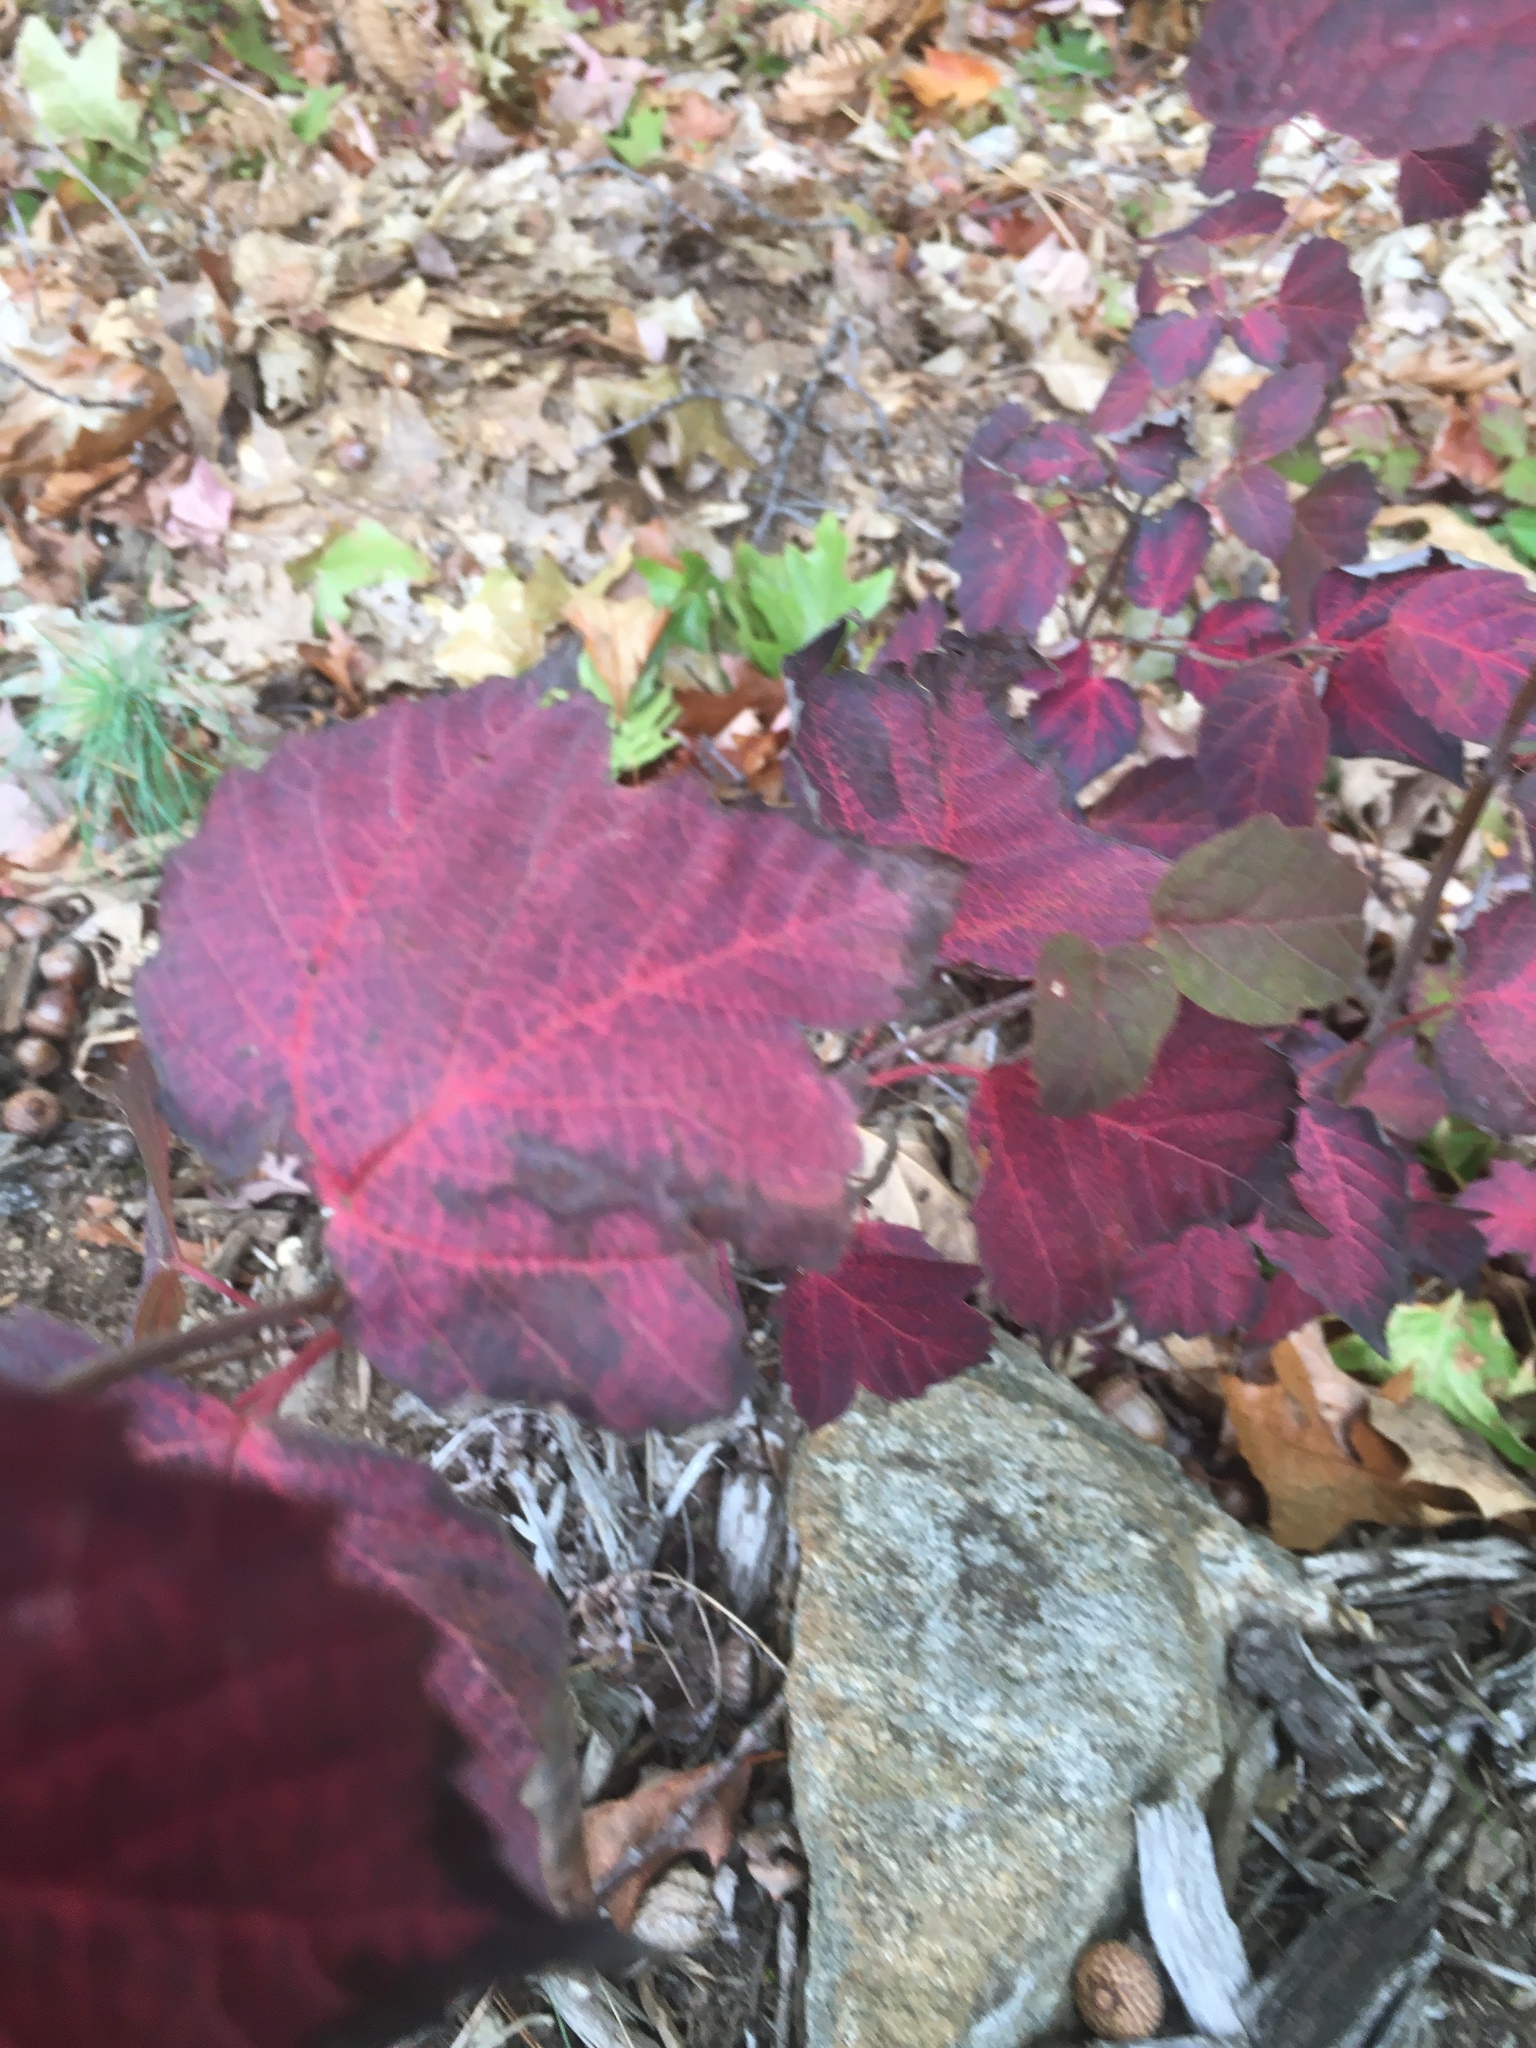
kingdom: Plantae
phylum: Tracheophyta
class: Magnoliopsida
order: Dipsacales
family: Viburnaceae
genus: Viburnum
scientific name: Viburnum acerifolium
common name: Dockmackie
